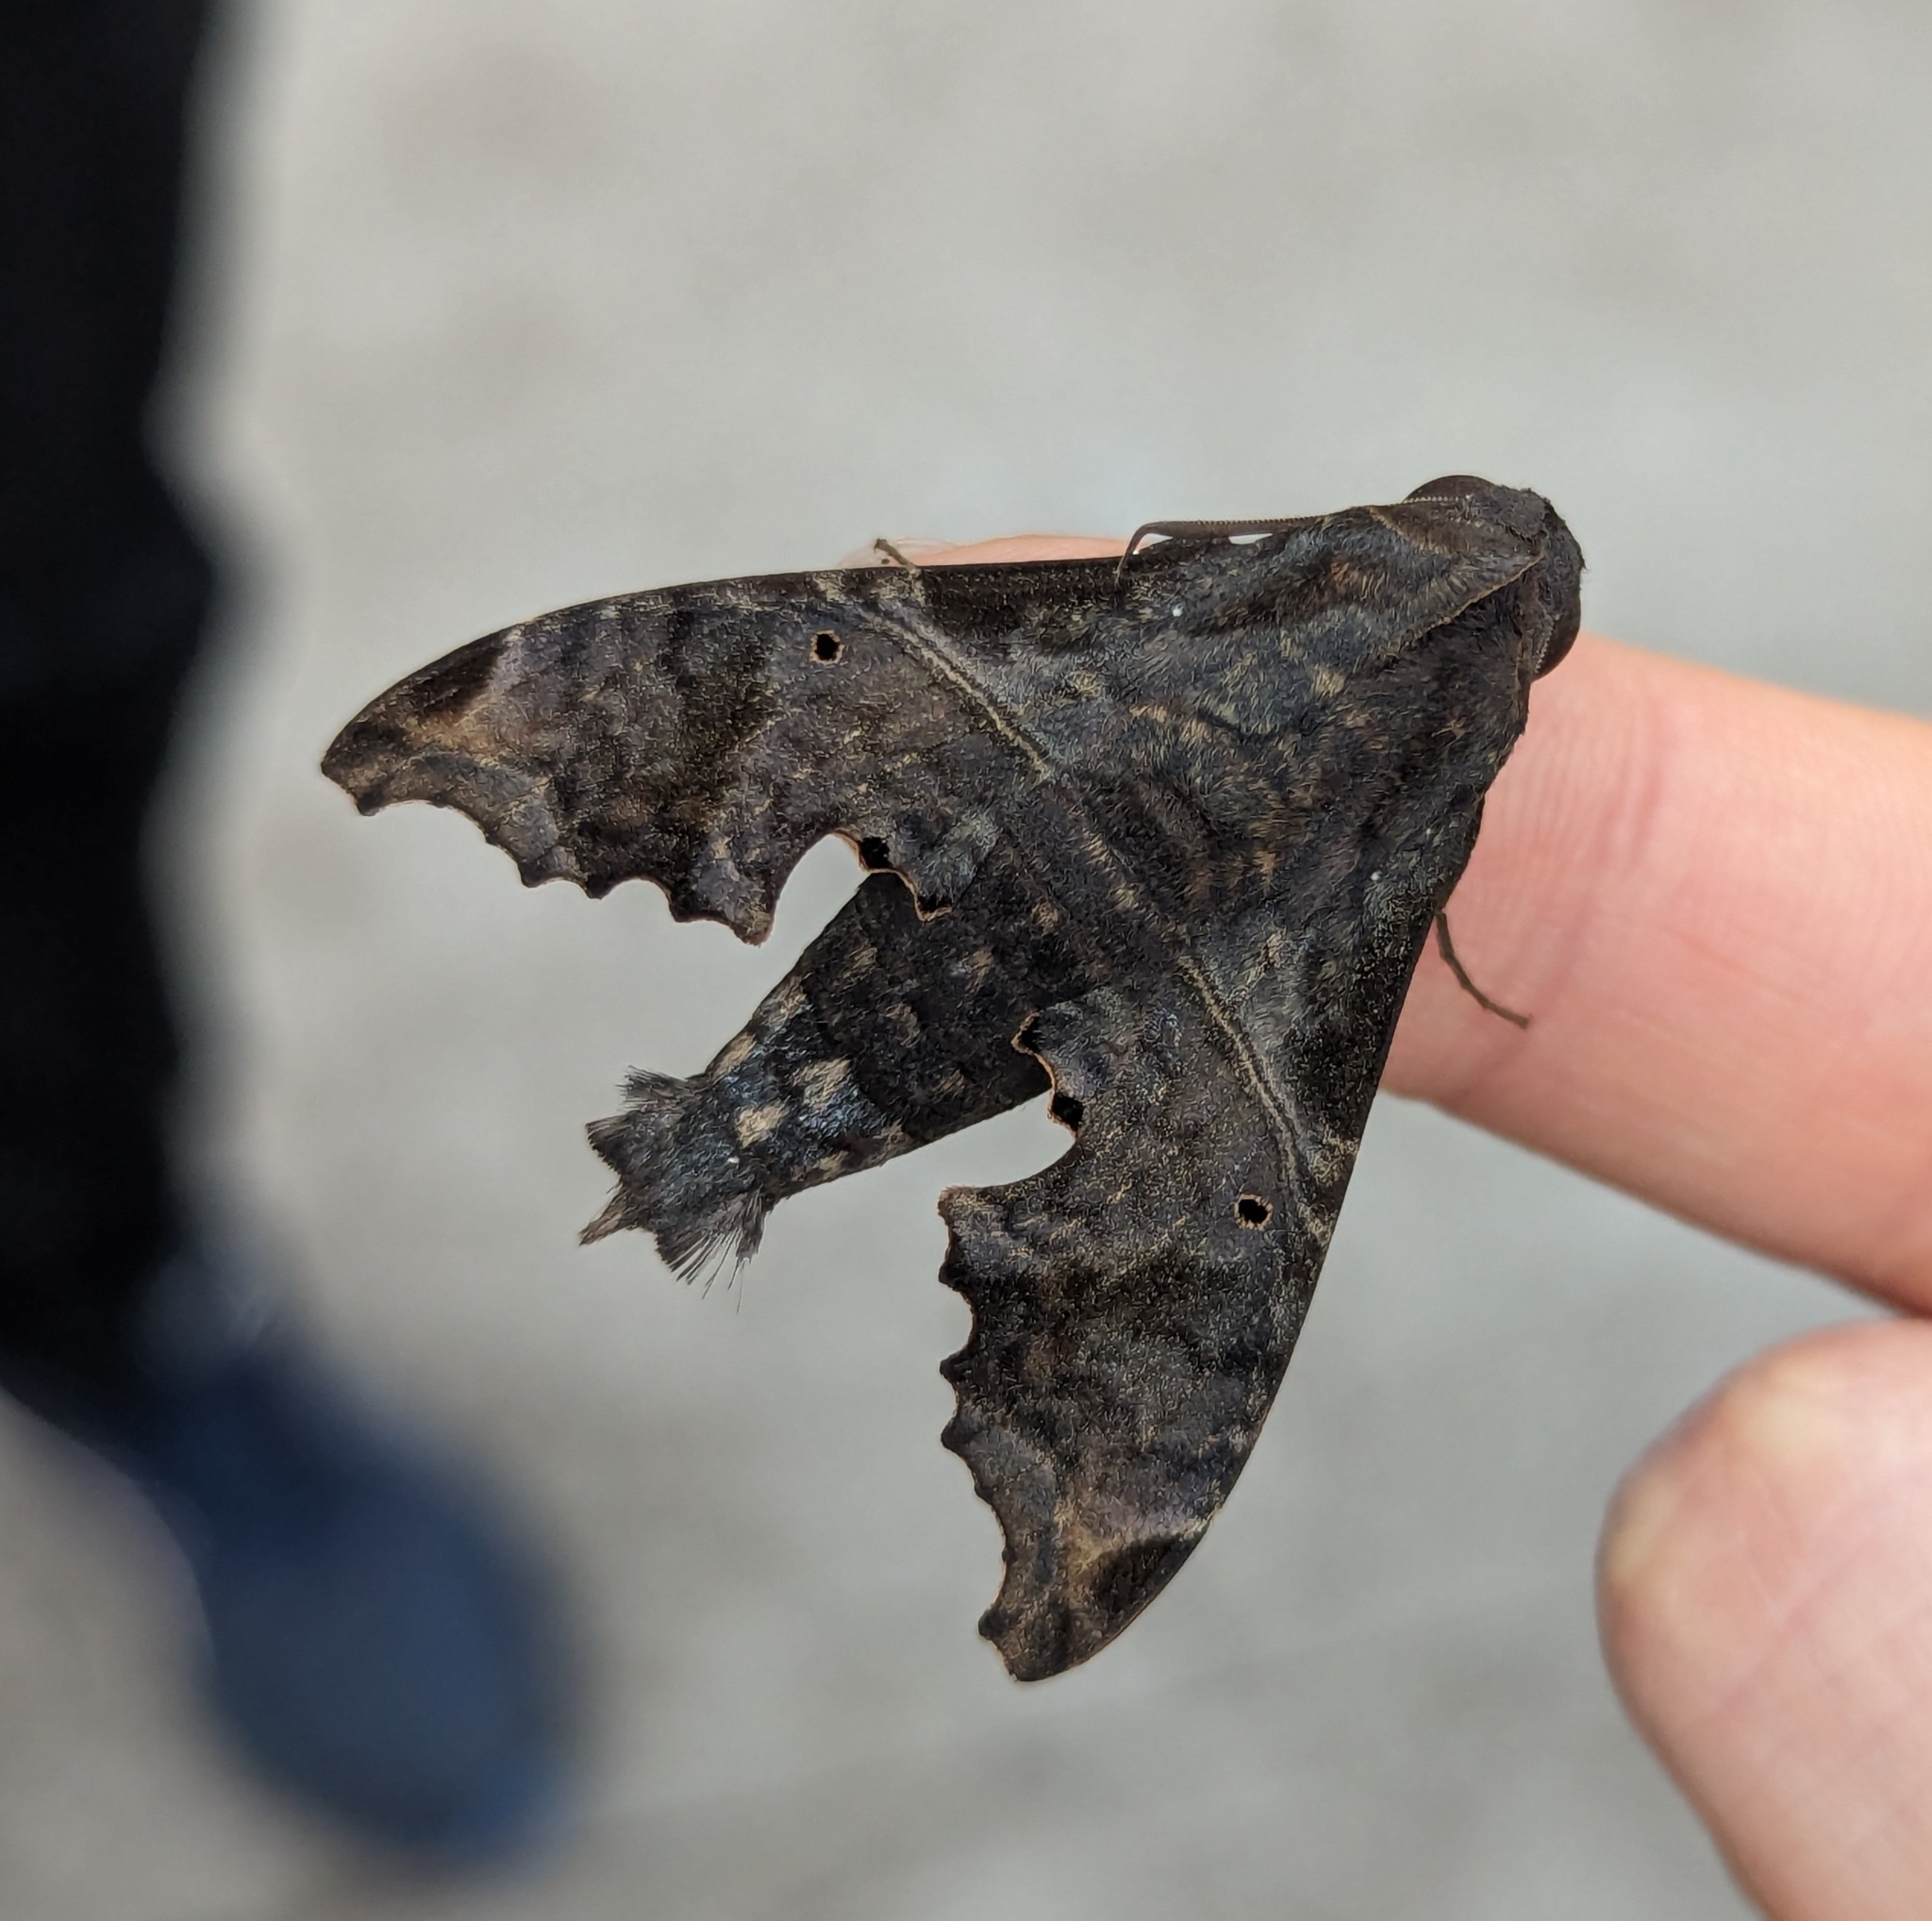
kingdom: Animalia
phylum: Arthropoda
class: Insecta
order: Lepidoptera
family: Sphingidae
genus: Enyo
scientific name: Enyo lugubris
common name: Mournful sphinx
